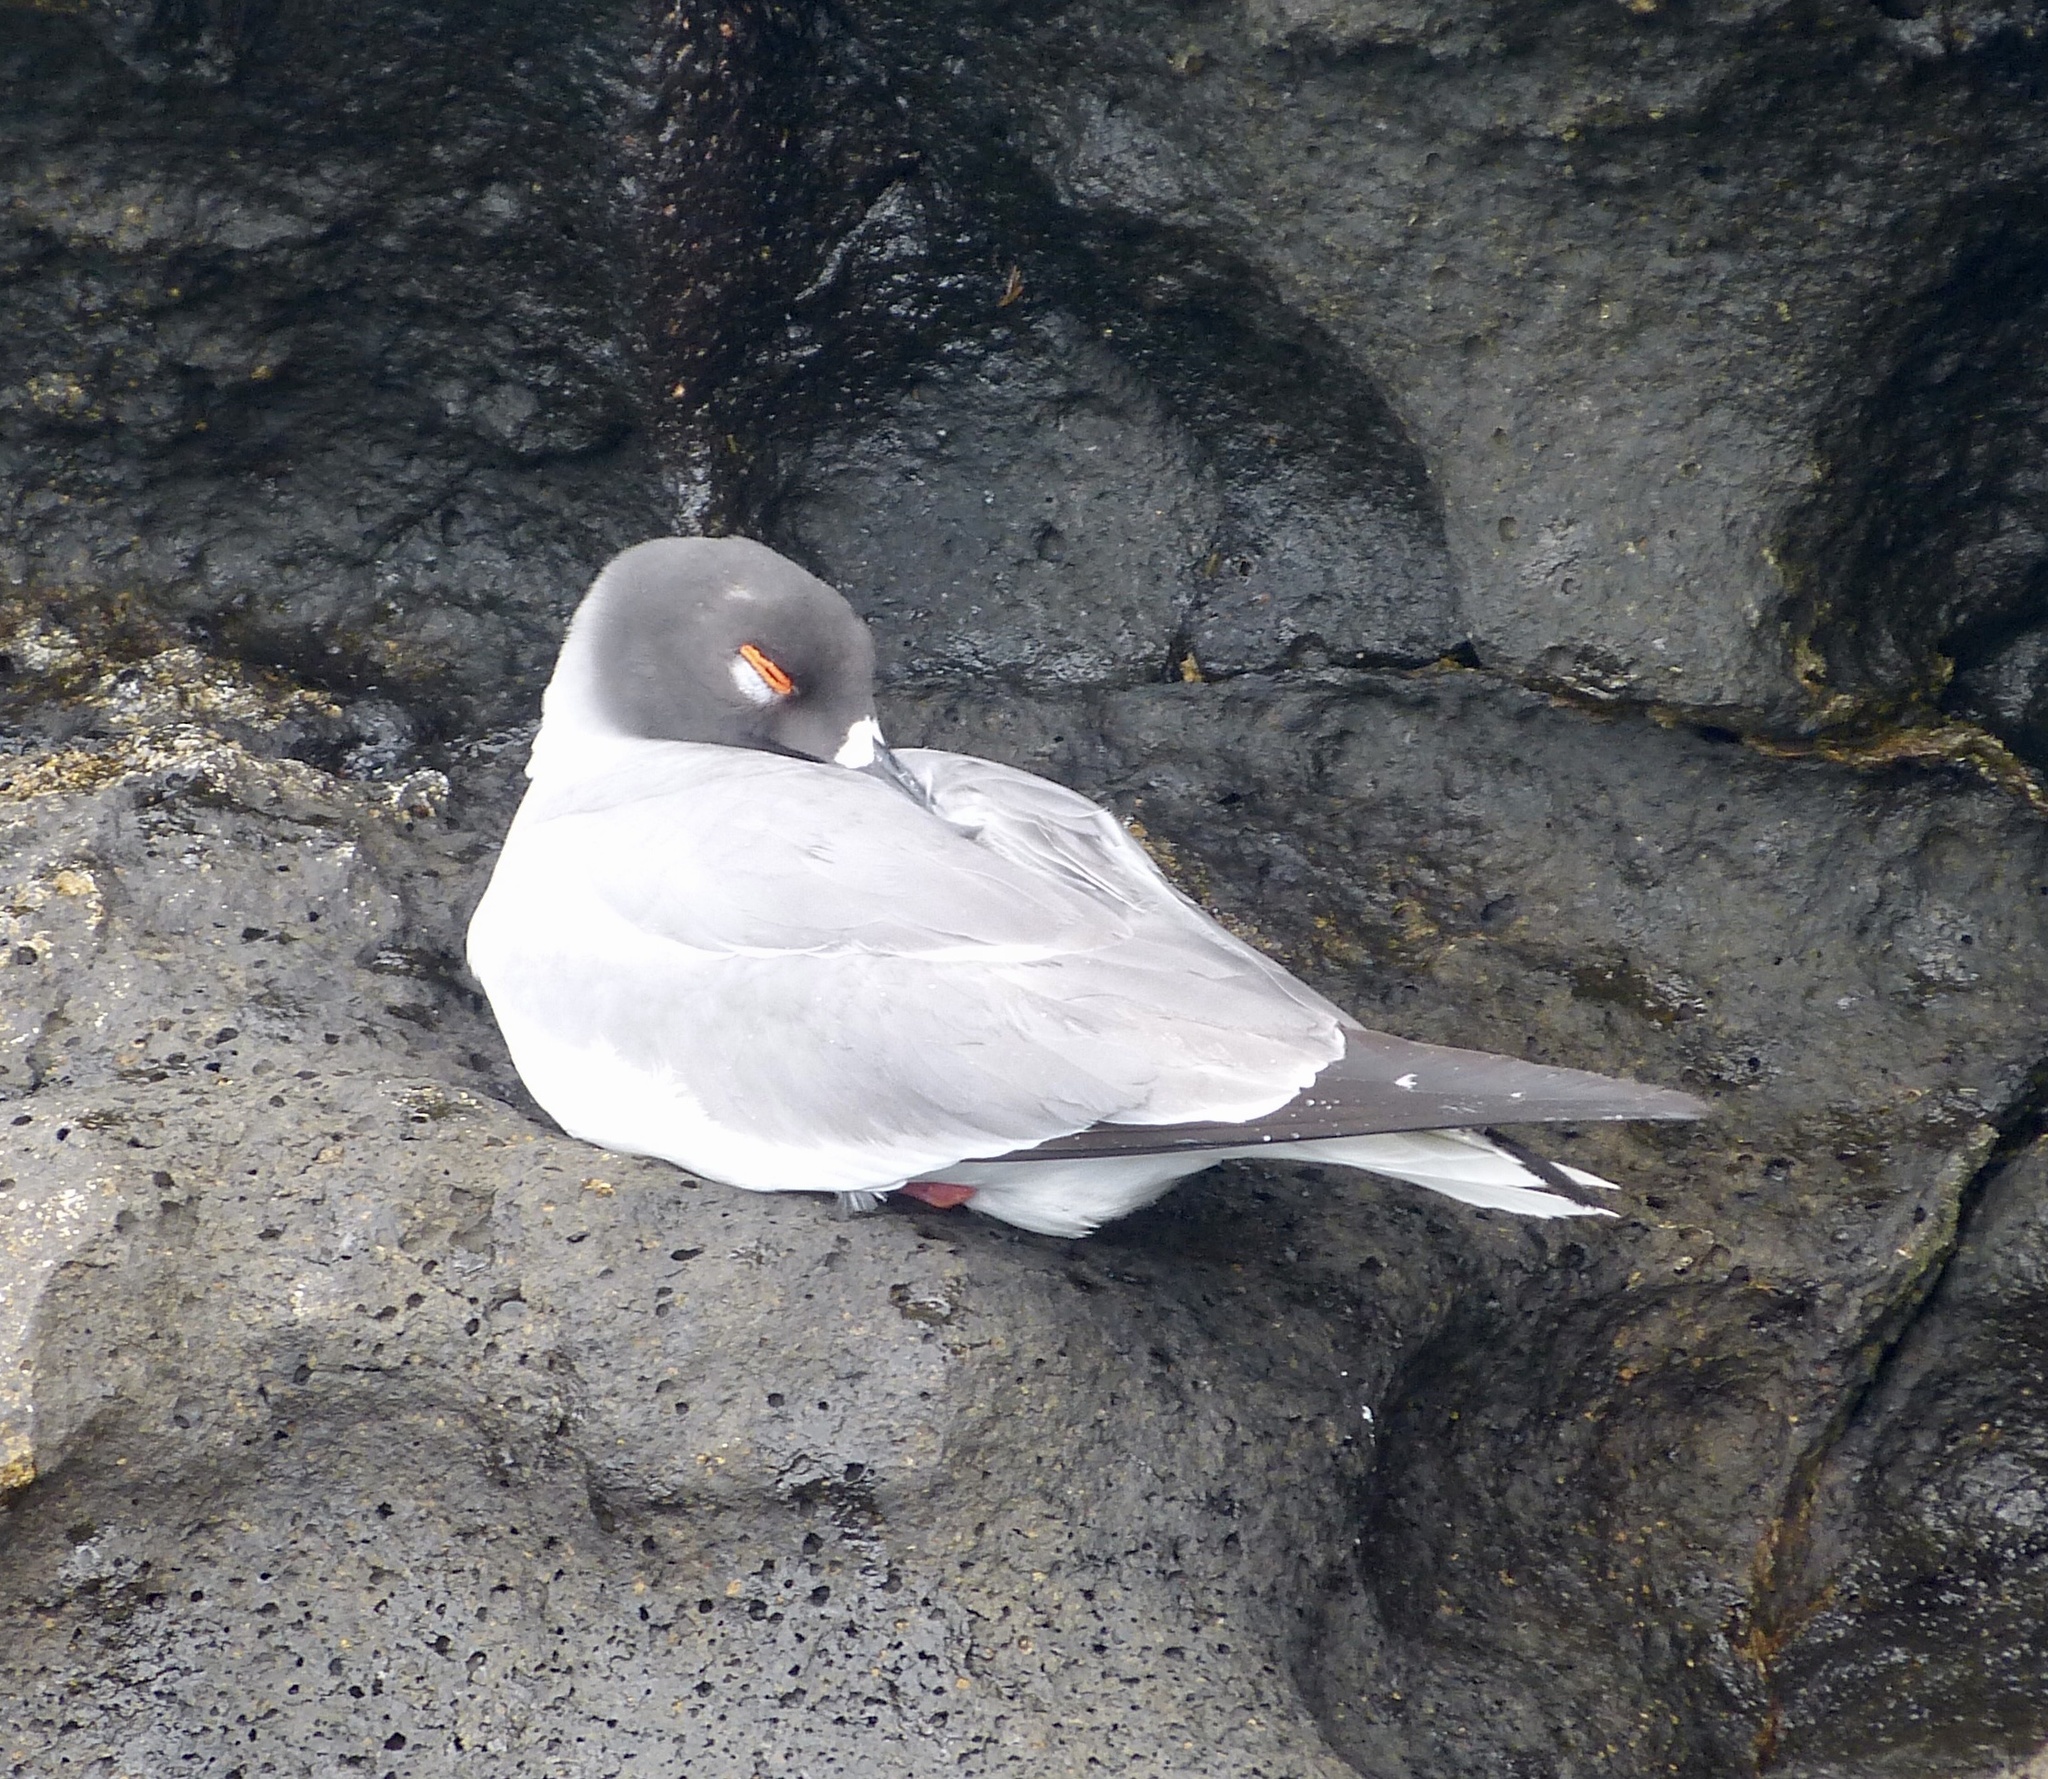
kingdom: Animalia
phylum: Chordata
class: Aves
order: Charadriiformes
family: Laridae
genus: Creagrus
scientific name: Creagrus furcatus
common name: Swallow-tailed gull
